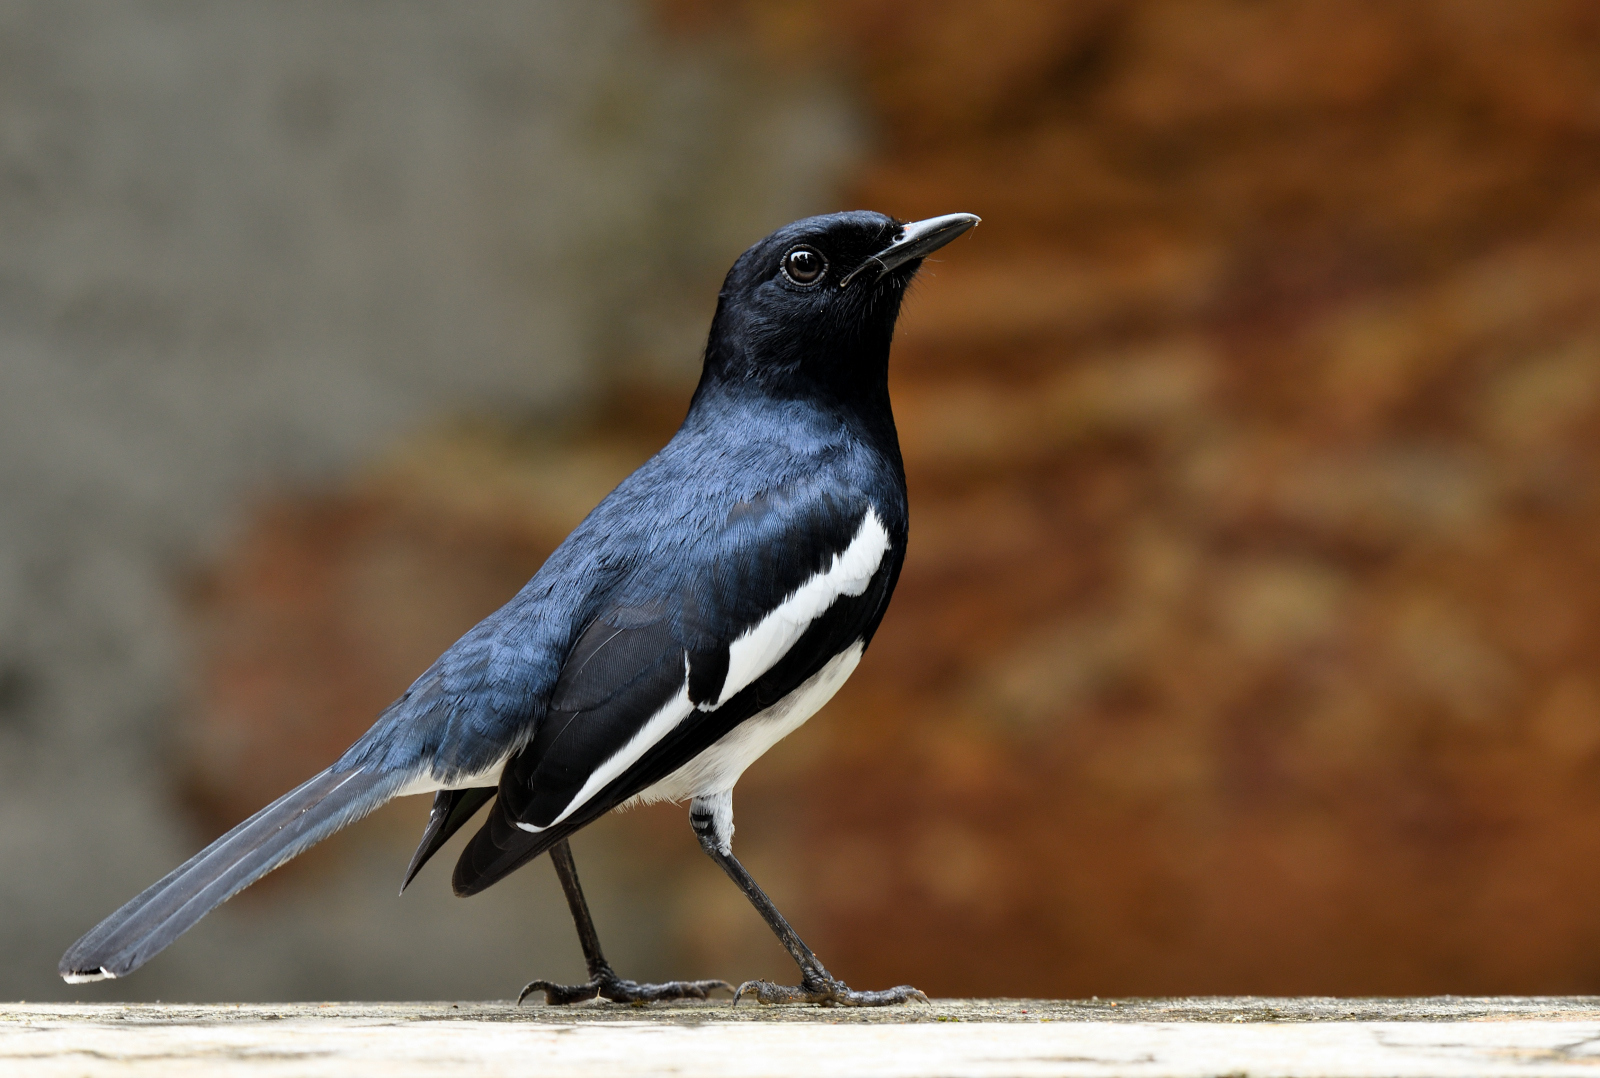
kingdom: Animalia
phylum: Chordata
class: Aves
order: Passeriformes
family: Muscicapidae
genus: Copsychus
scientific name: Copsychus saularis
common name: Oriental magpie-robin
